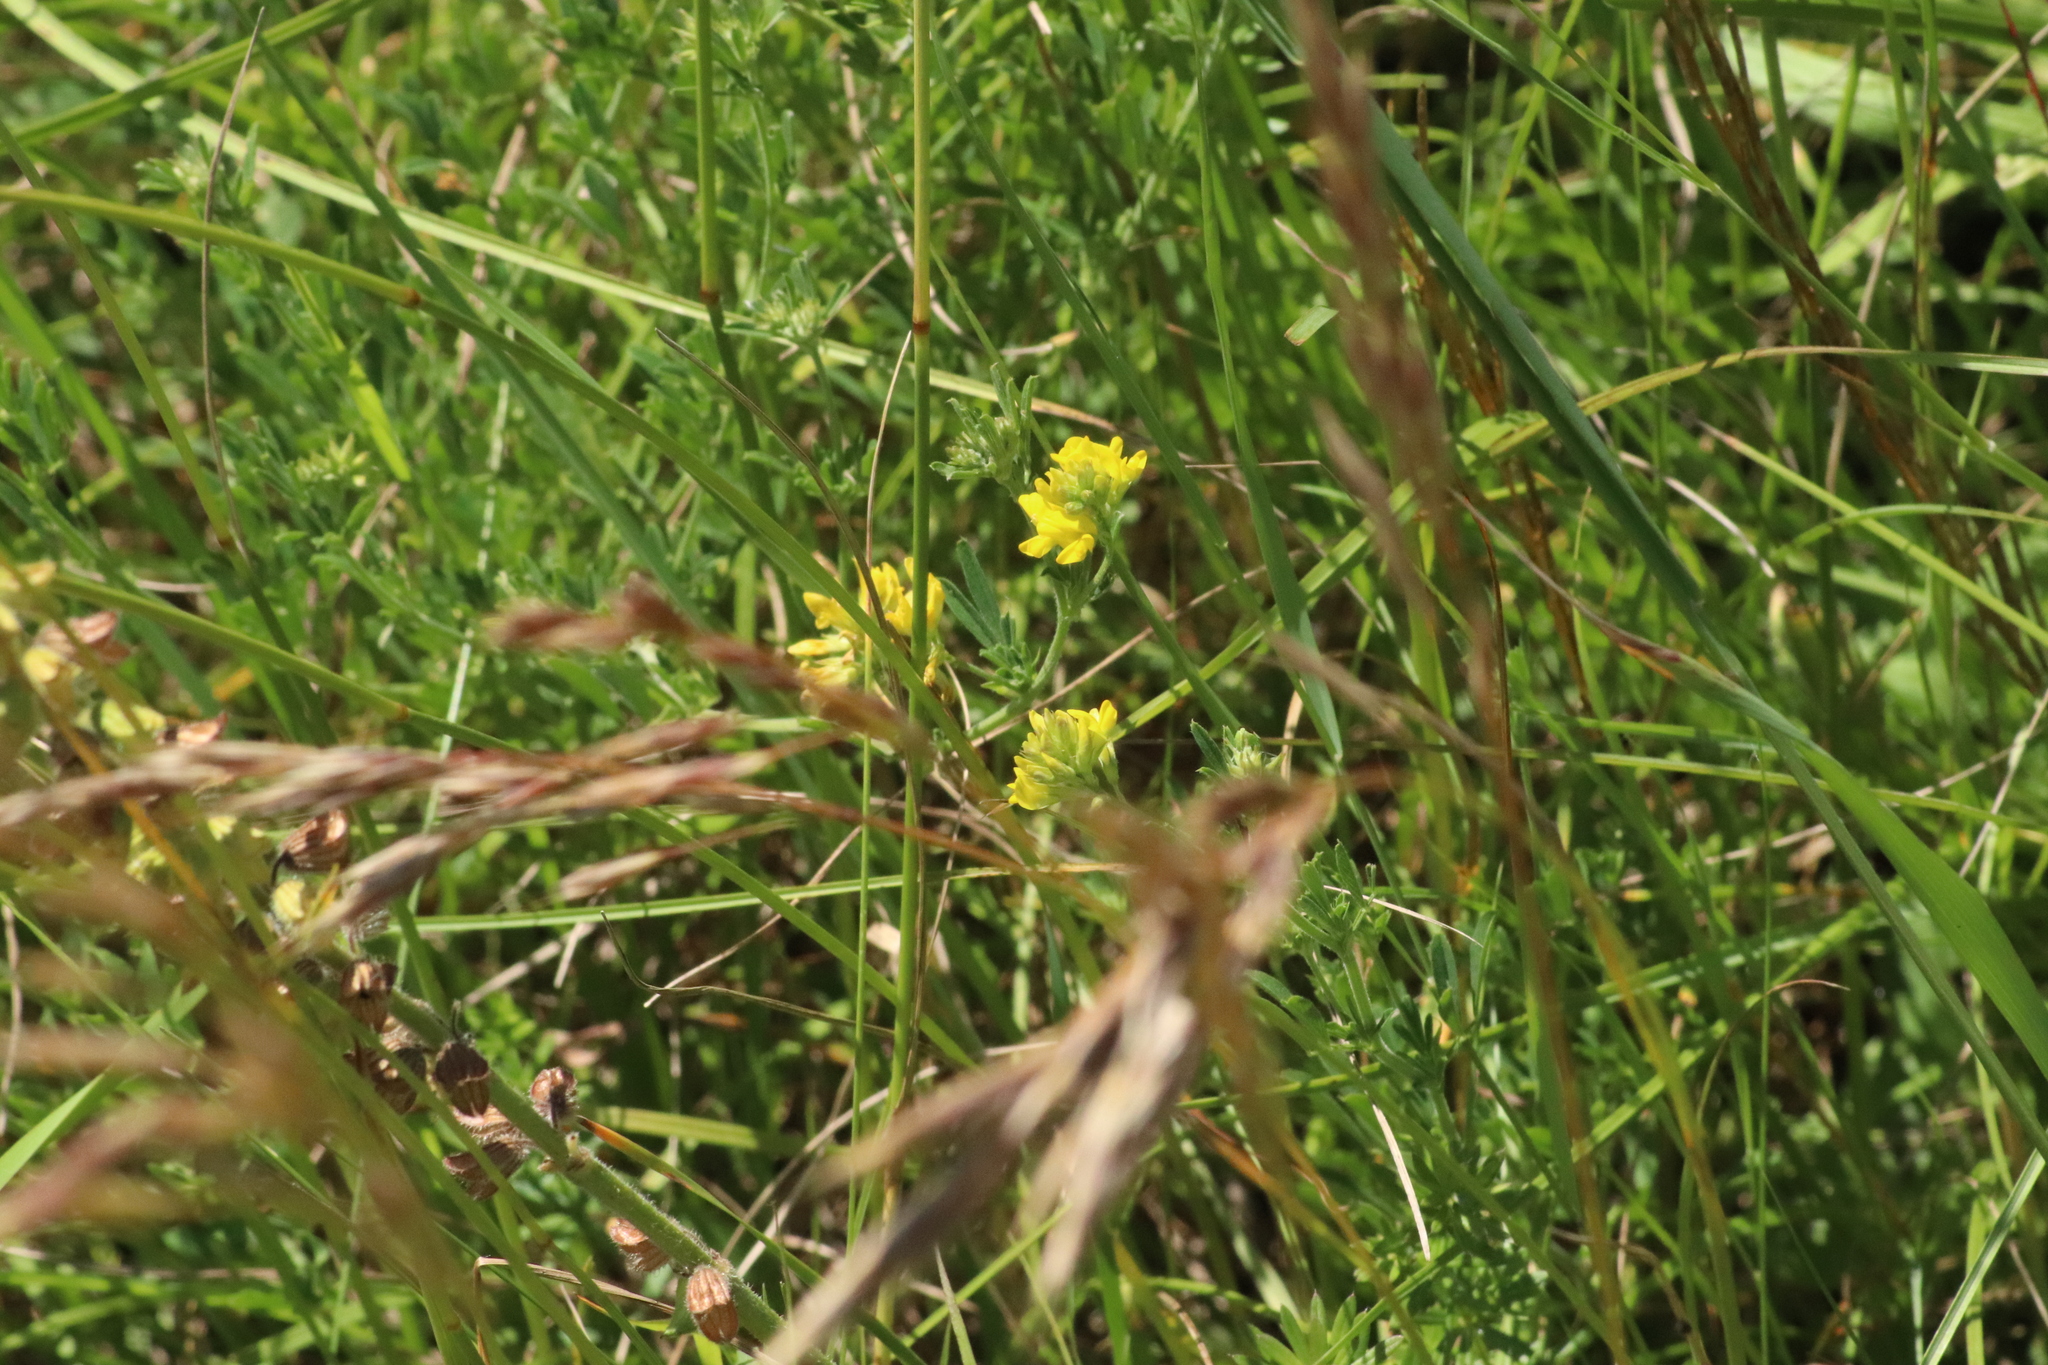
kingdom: Plantae
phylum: Tracheophyta
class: Magnoliopsida
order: Fabales
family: Fabaceae
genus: Medicago
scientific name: Medicago falcata
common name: Sickle medick
